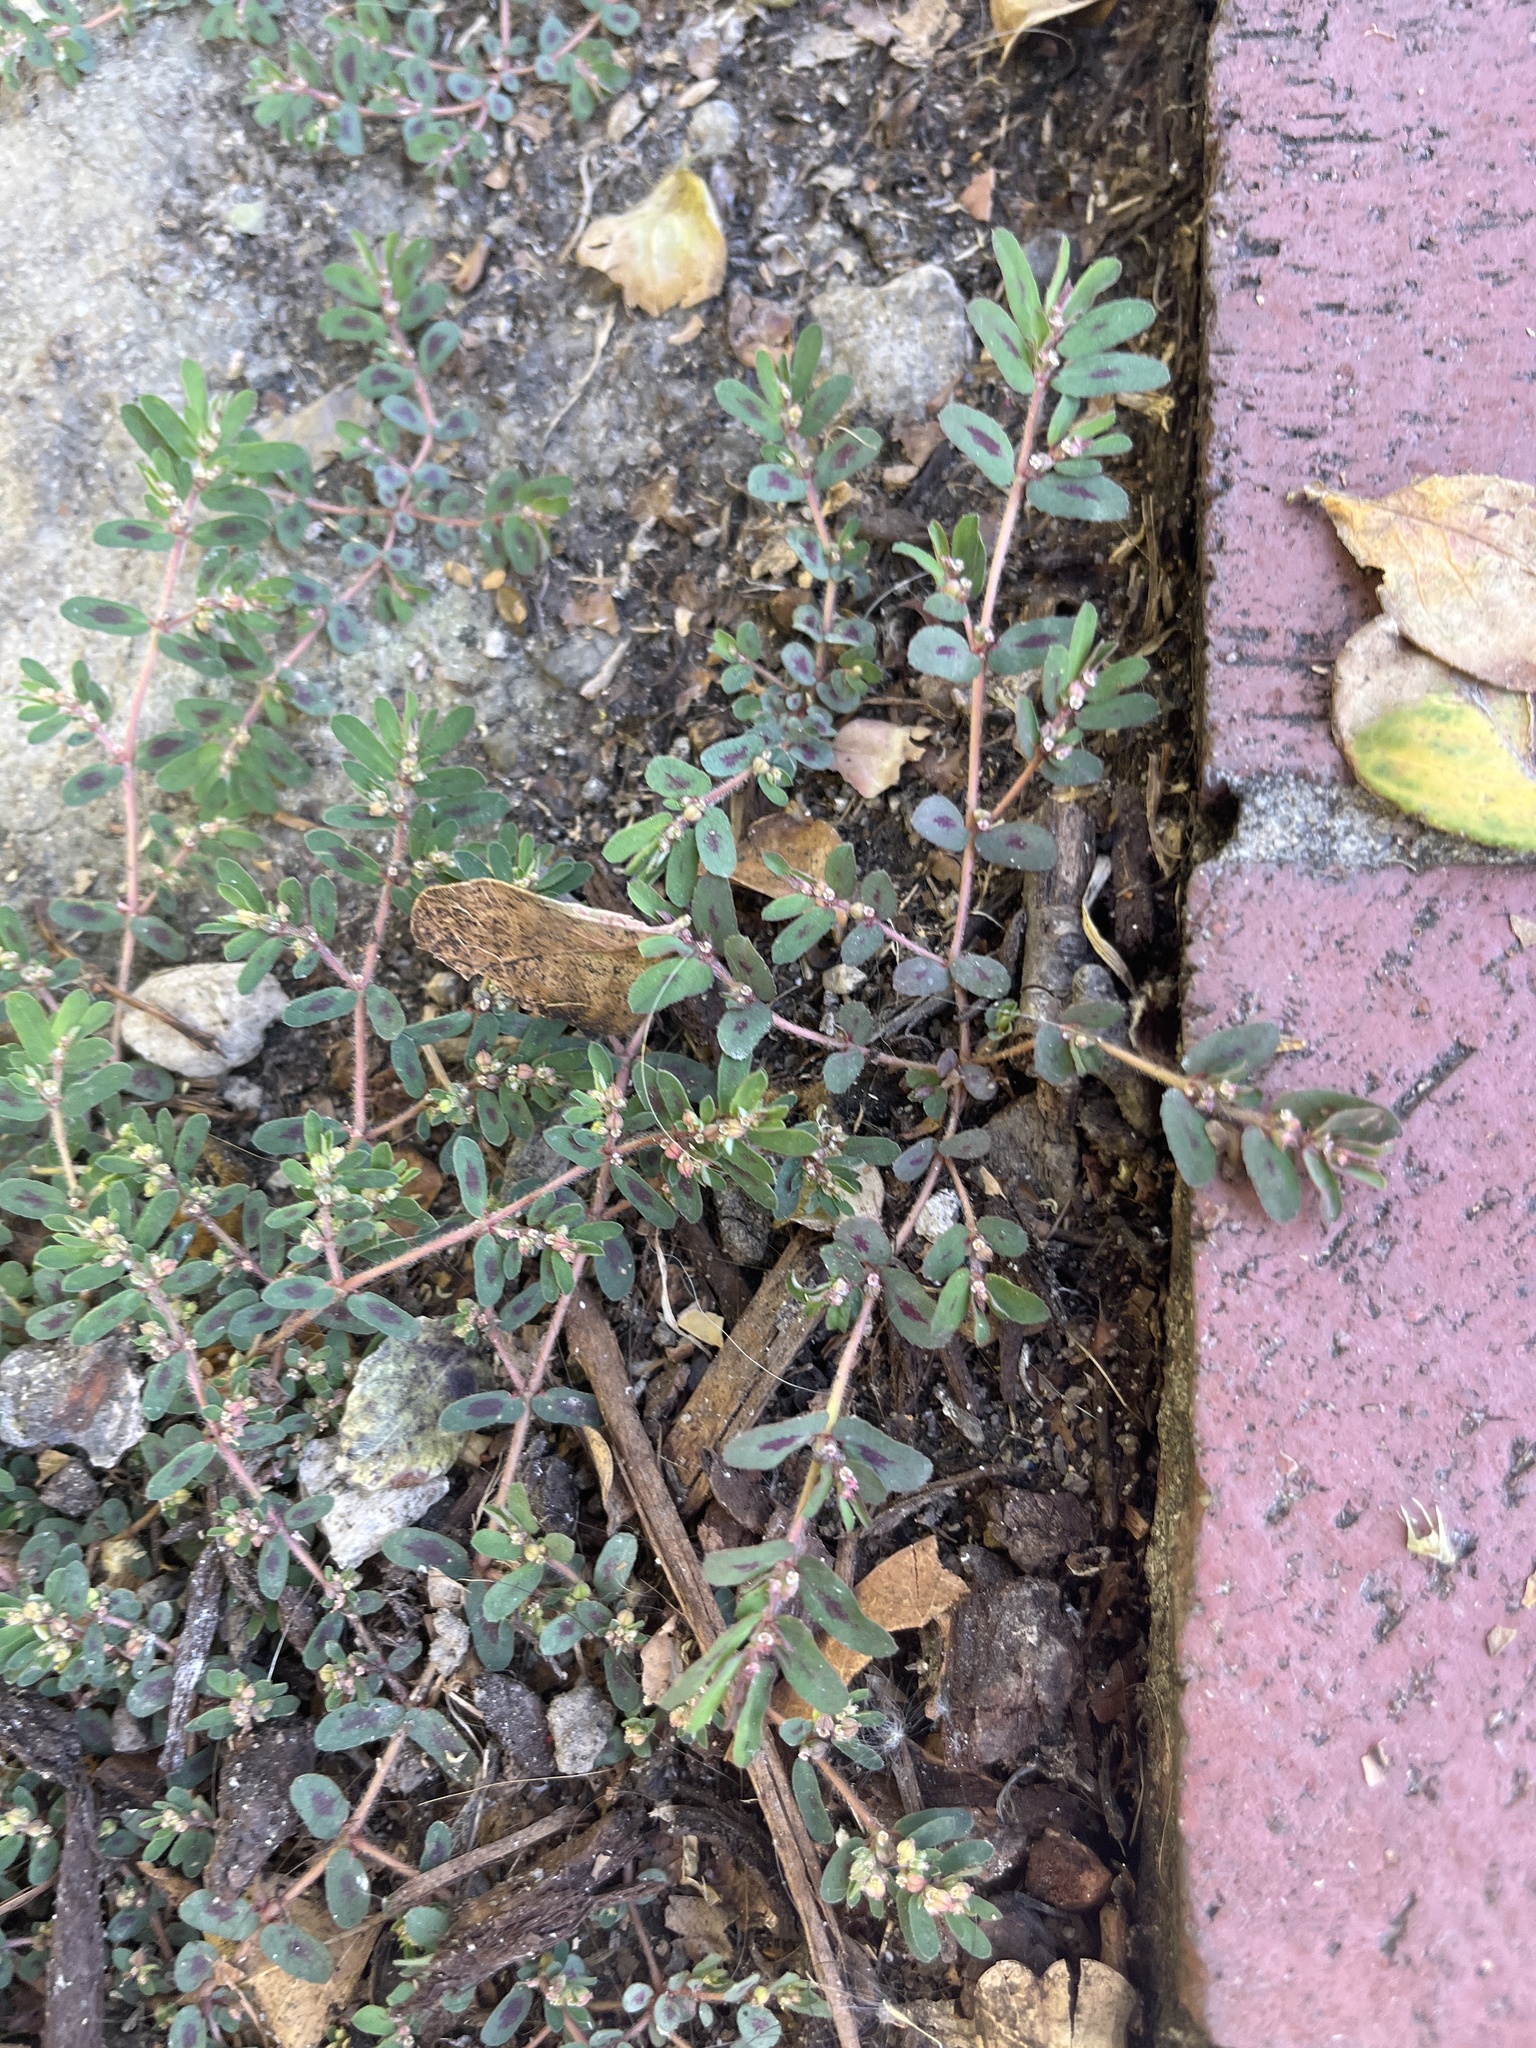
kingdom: Plantae
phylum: Tracheophyta
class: Magnoliopsida
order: Malpighiales
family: Euphorbiaceae
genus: Euphorbia
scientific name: Euphorbia maculata
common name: Spotted spurge
